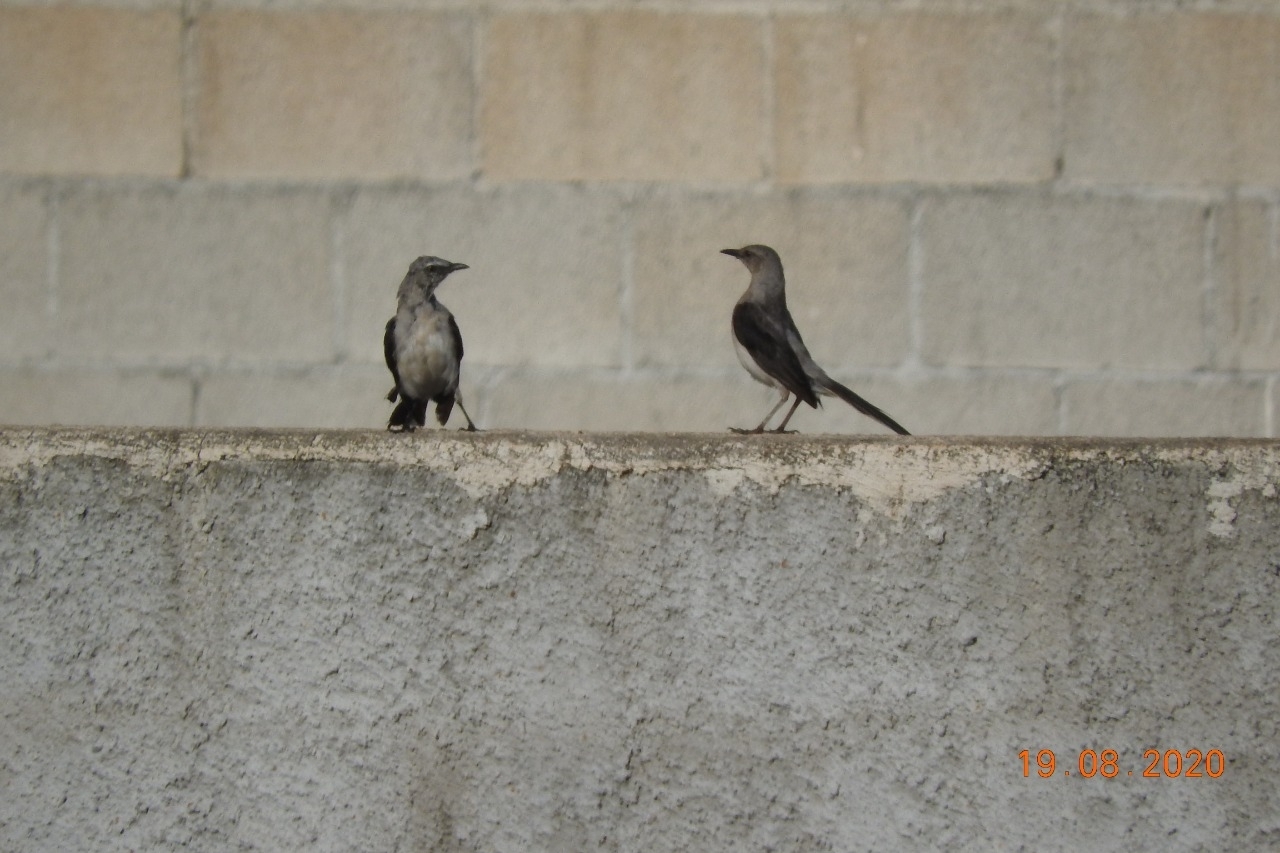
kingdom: Animalia
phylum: Chordata
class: Aves
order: Passeriformes
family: Mimidae
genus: Mimus
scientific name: Mimus gilvus
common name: Tropical mockingbird
